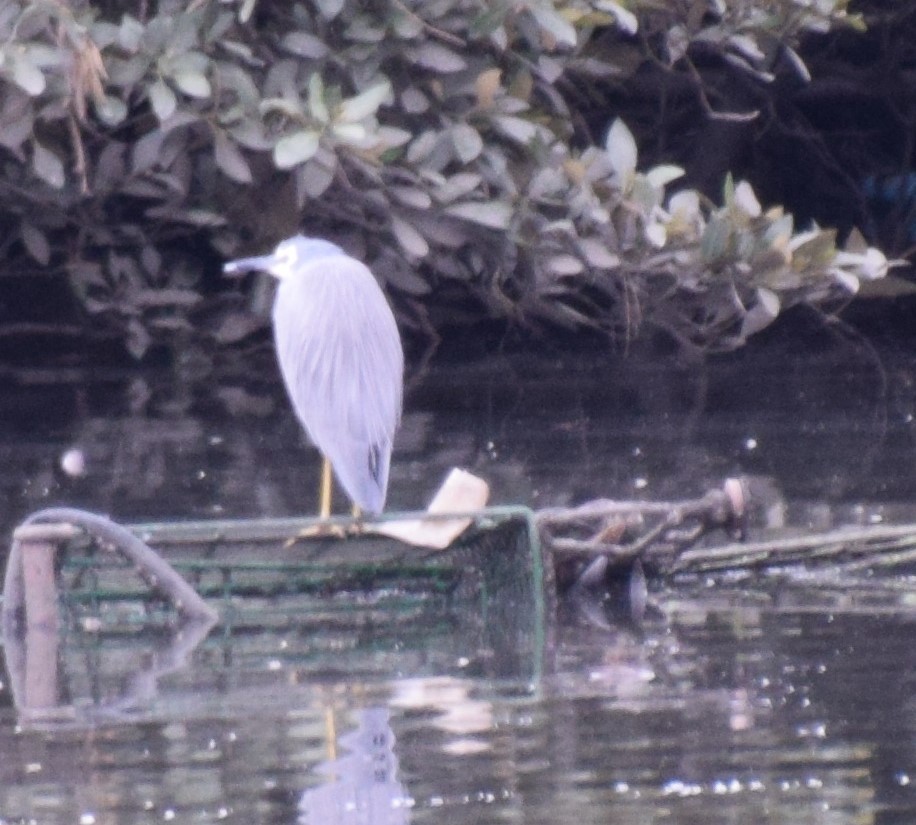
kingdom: Animalia
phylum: Chordata
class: Aves
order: Pelecaniformes
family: Ardeidae
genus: Egretta
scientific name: Egretta novaehollandiae
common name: White-faced heron
